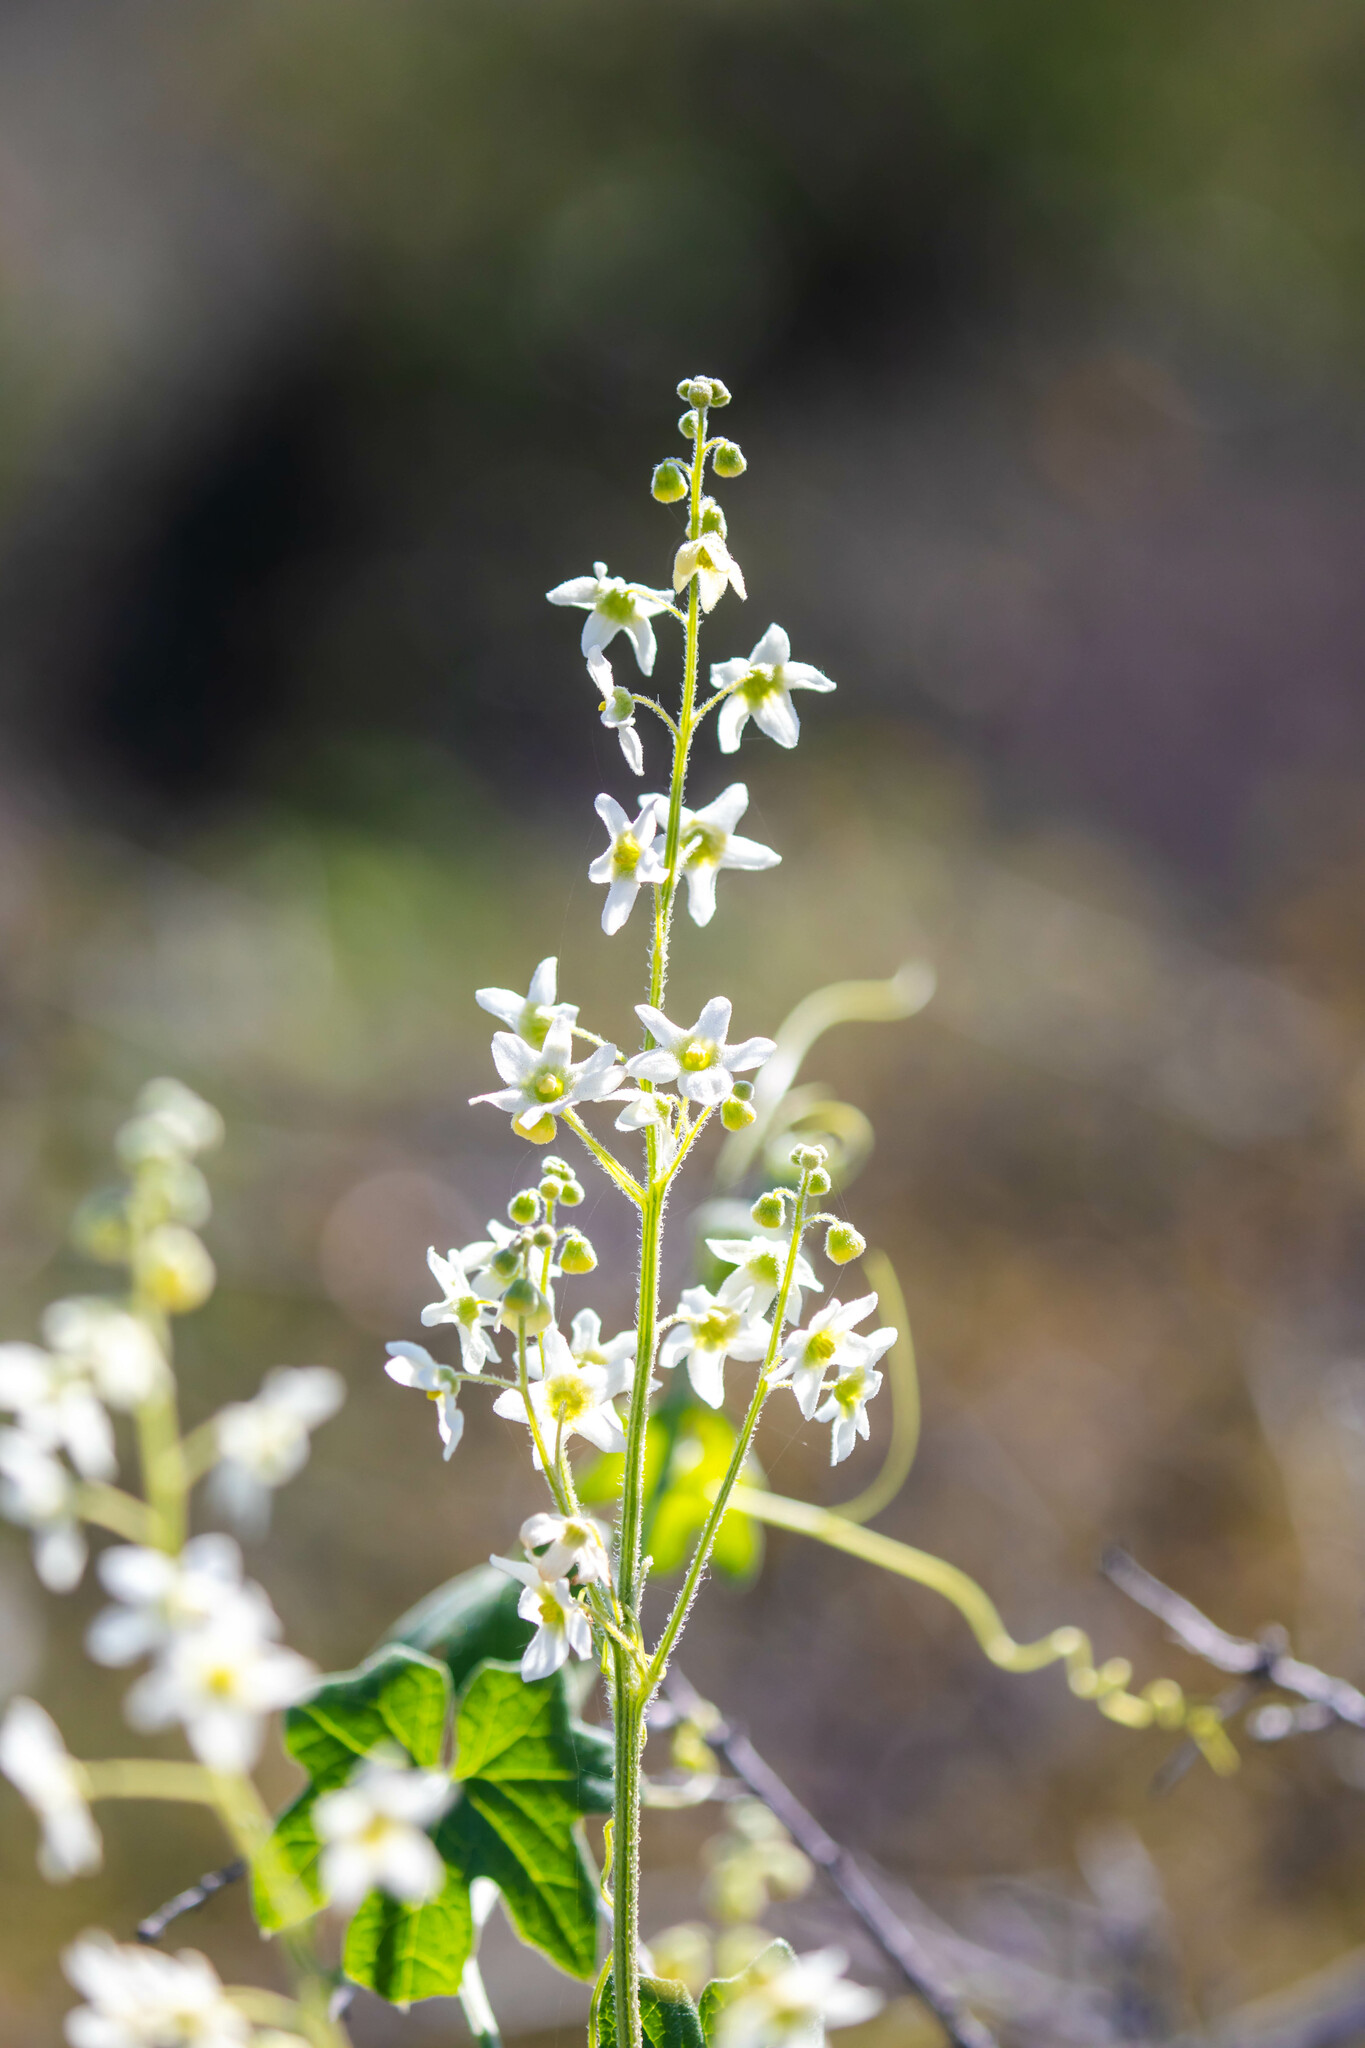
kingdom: Plantae
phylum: Tracheophyta
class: Magnoliopsida
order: Cucurbitales
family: Cucurbitaceae
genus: Marah
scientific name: Marah macrocarpa
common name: Cucamonga manroot
